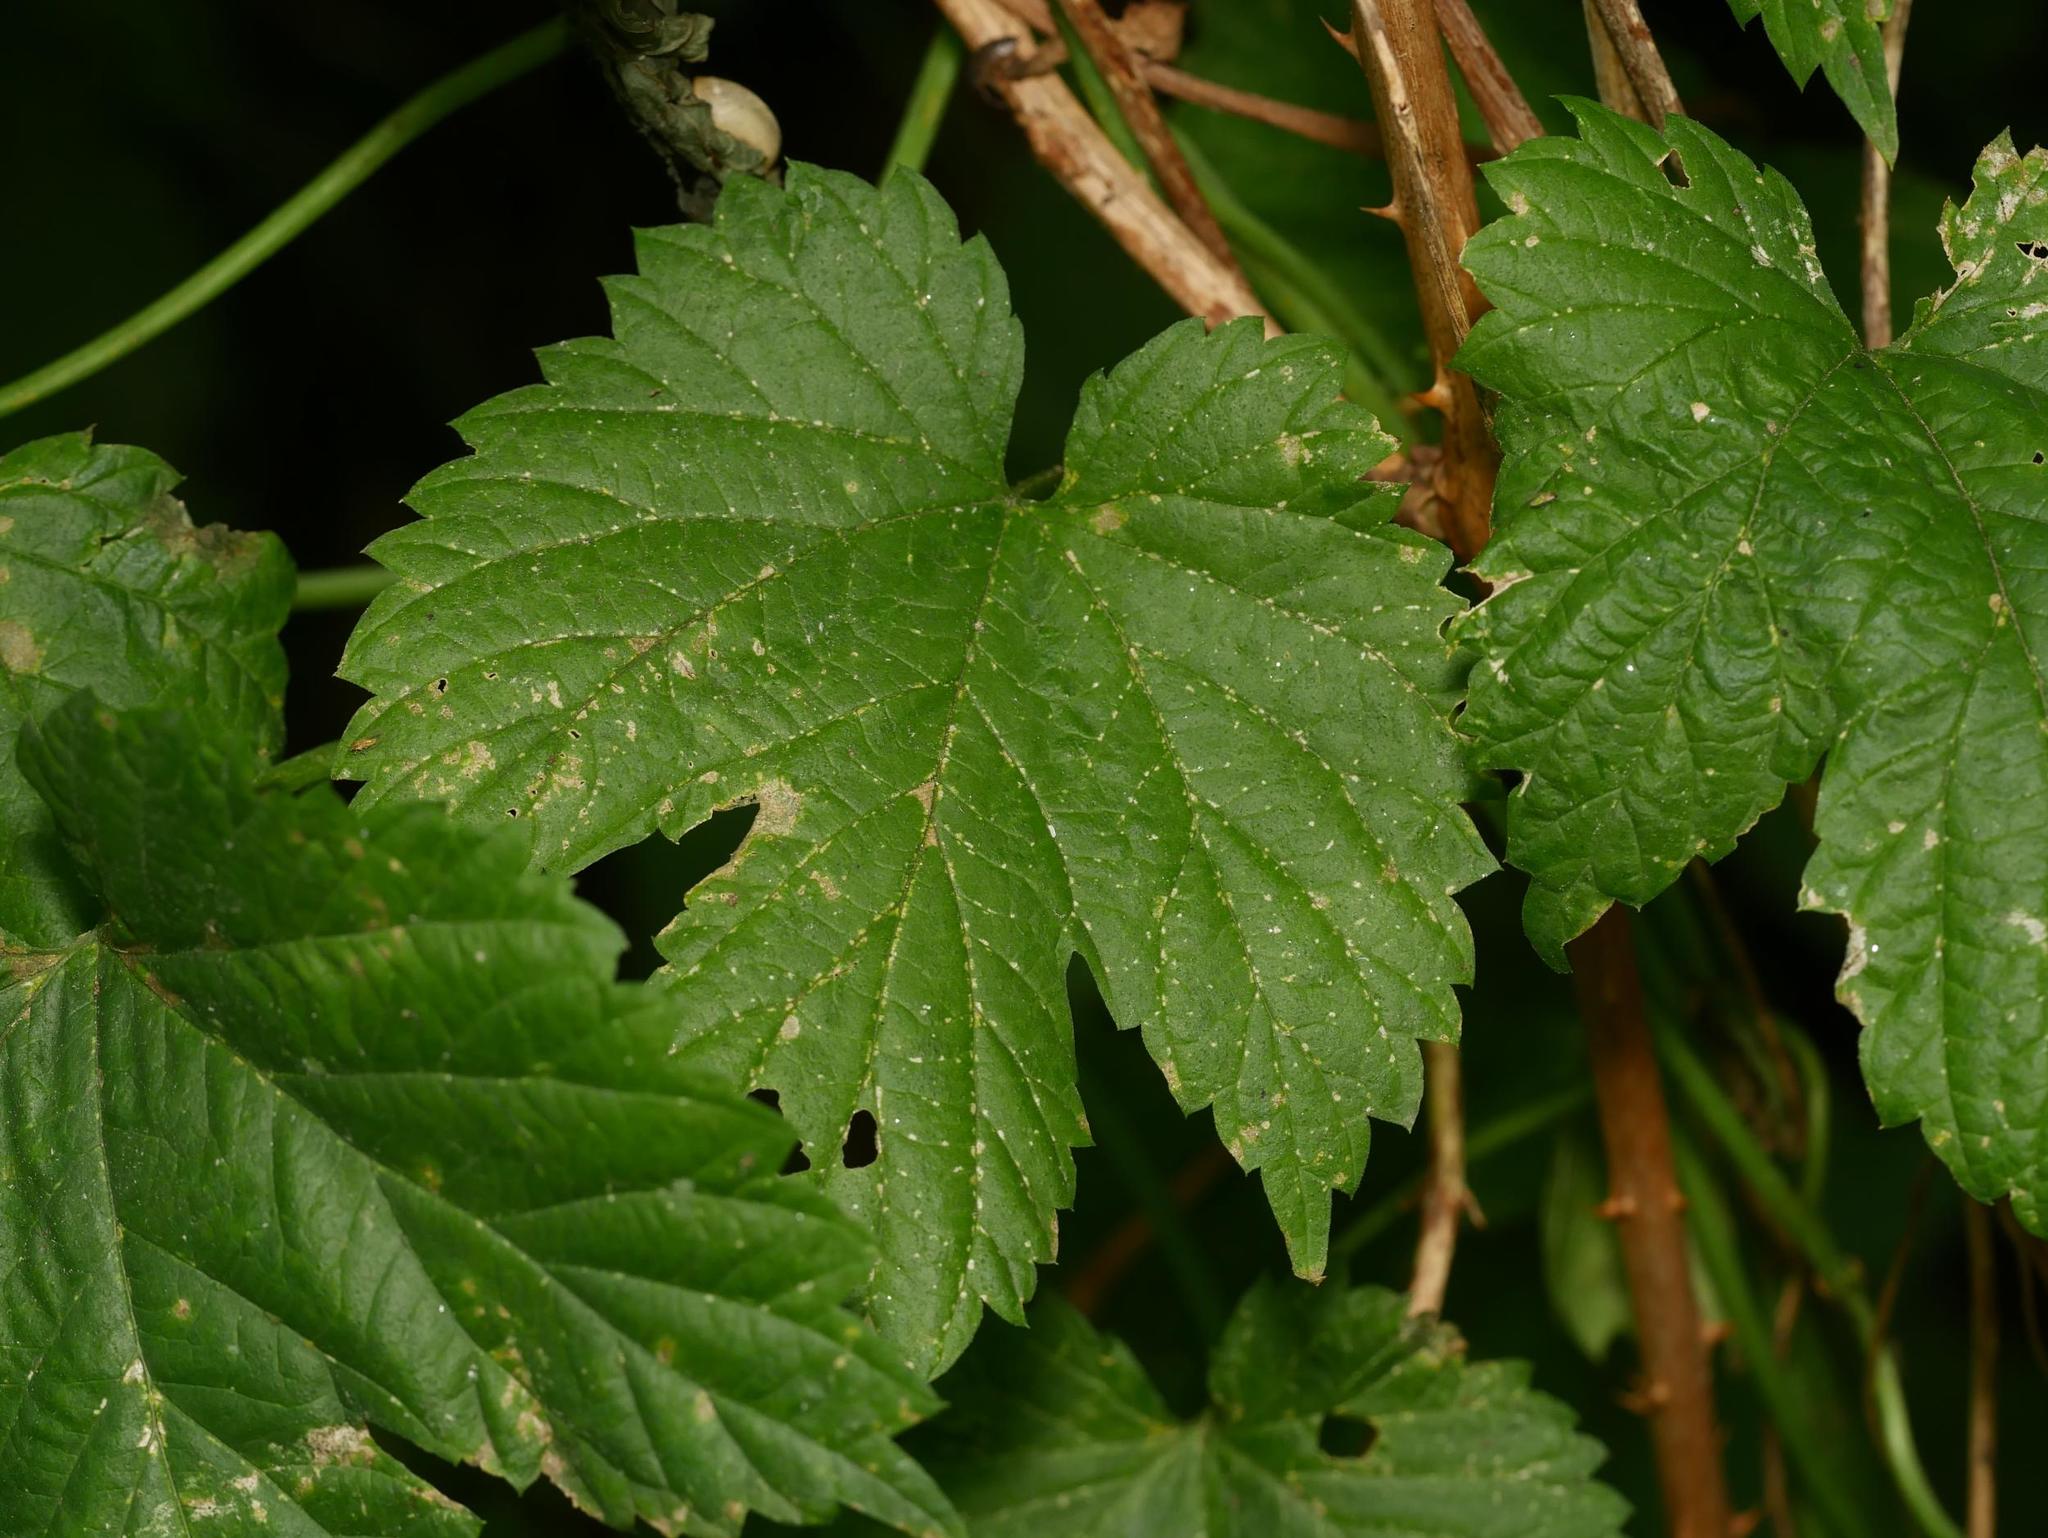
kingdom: Plantae
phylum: Tracheophyta
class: Magnoliopsida
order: Rosales
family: Cannabaceae
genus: Humulus
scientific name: Humulus lupulus
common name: Hop
